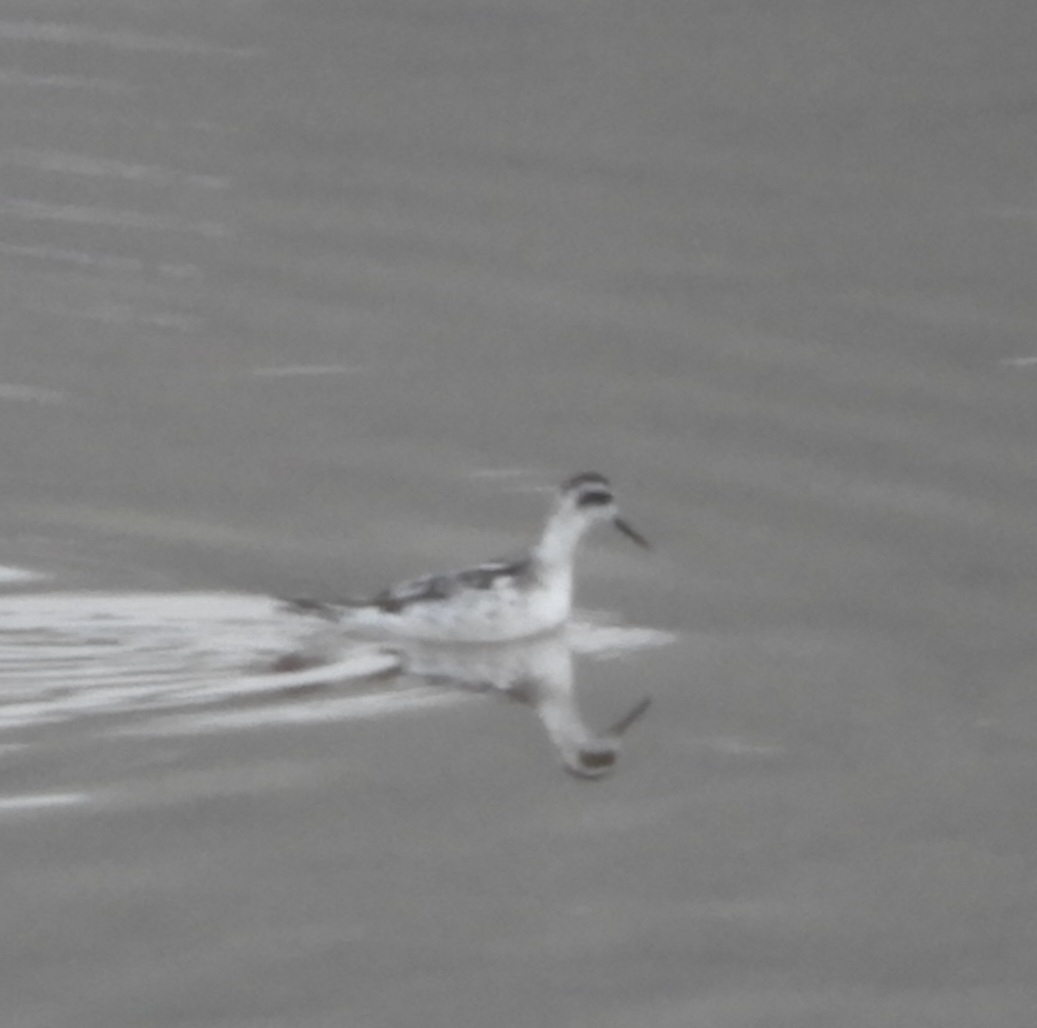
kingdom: Animalia
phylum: Chordata
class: Aves
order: Charadriiformes
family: Scolopacidae
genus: Phalaropus
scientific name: Phalaropus lobatus
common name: Red-necked phalarope
